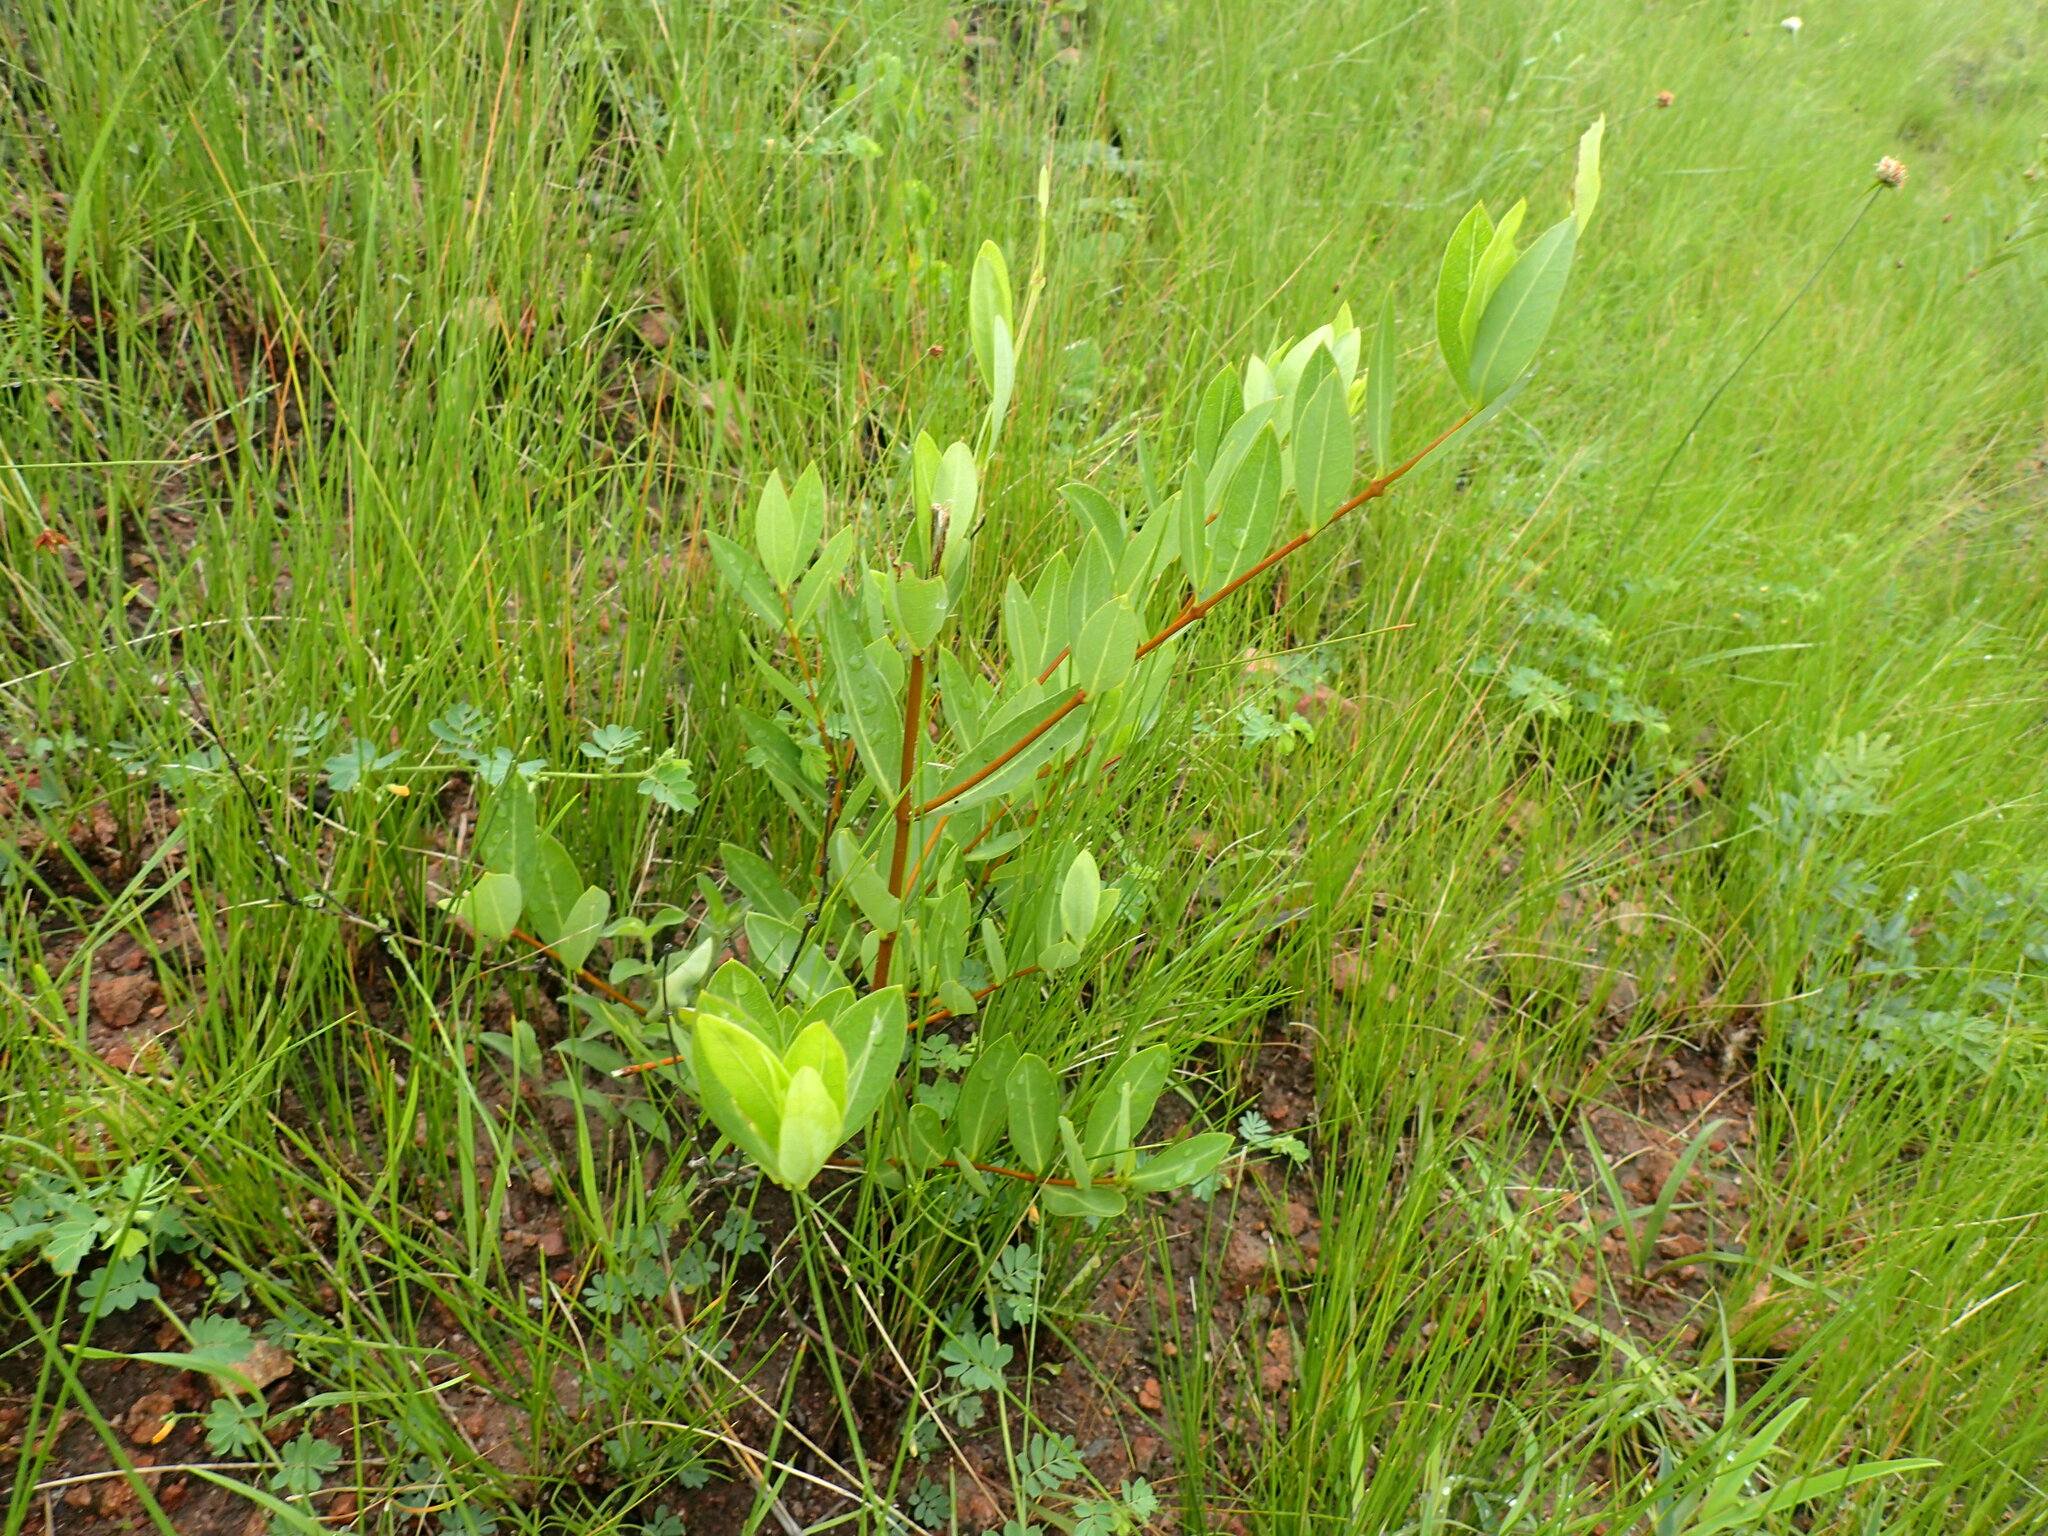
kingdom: Plantae
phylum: Tracheophyta
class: Magnoliopsida
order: Gentianales
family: Apocynaceae
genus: Cryptolepis
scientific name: Cryptolepis oblongifolia
